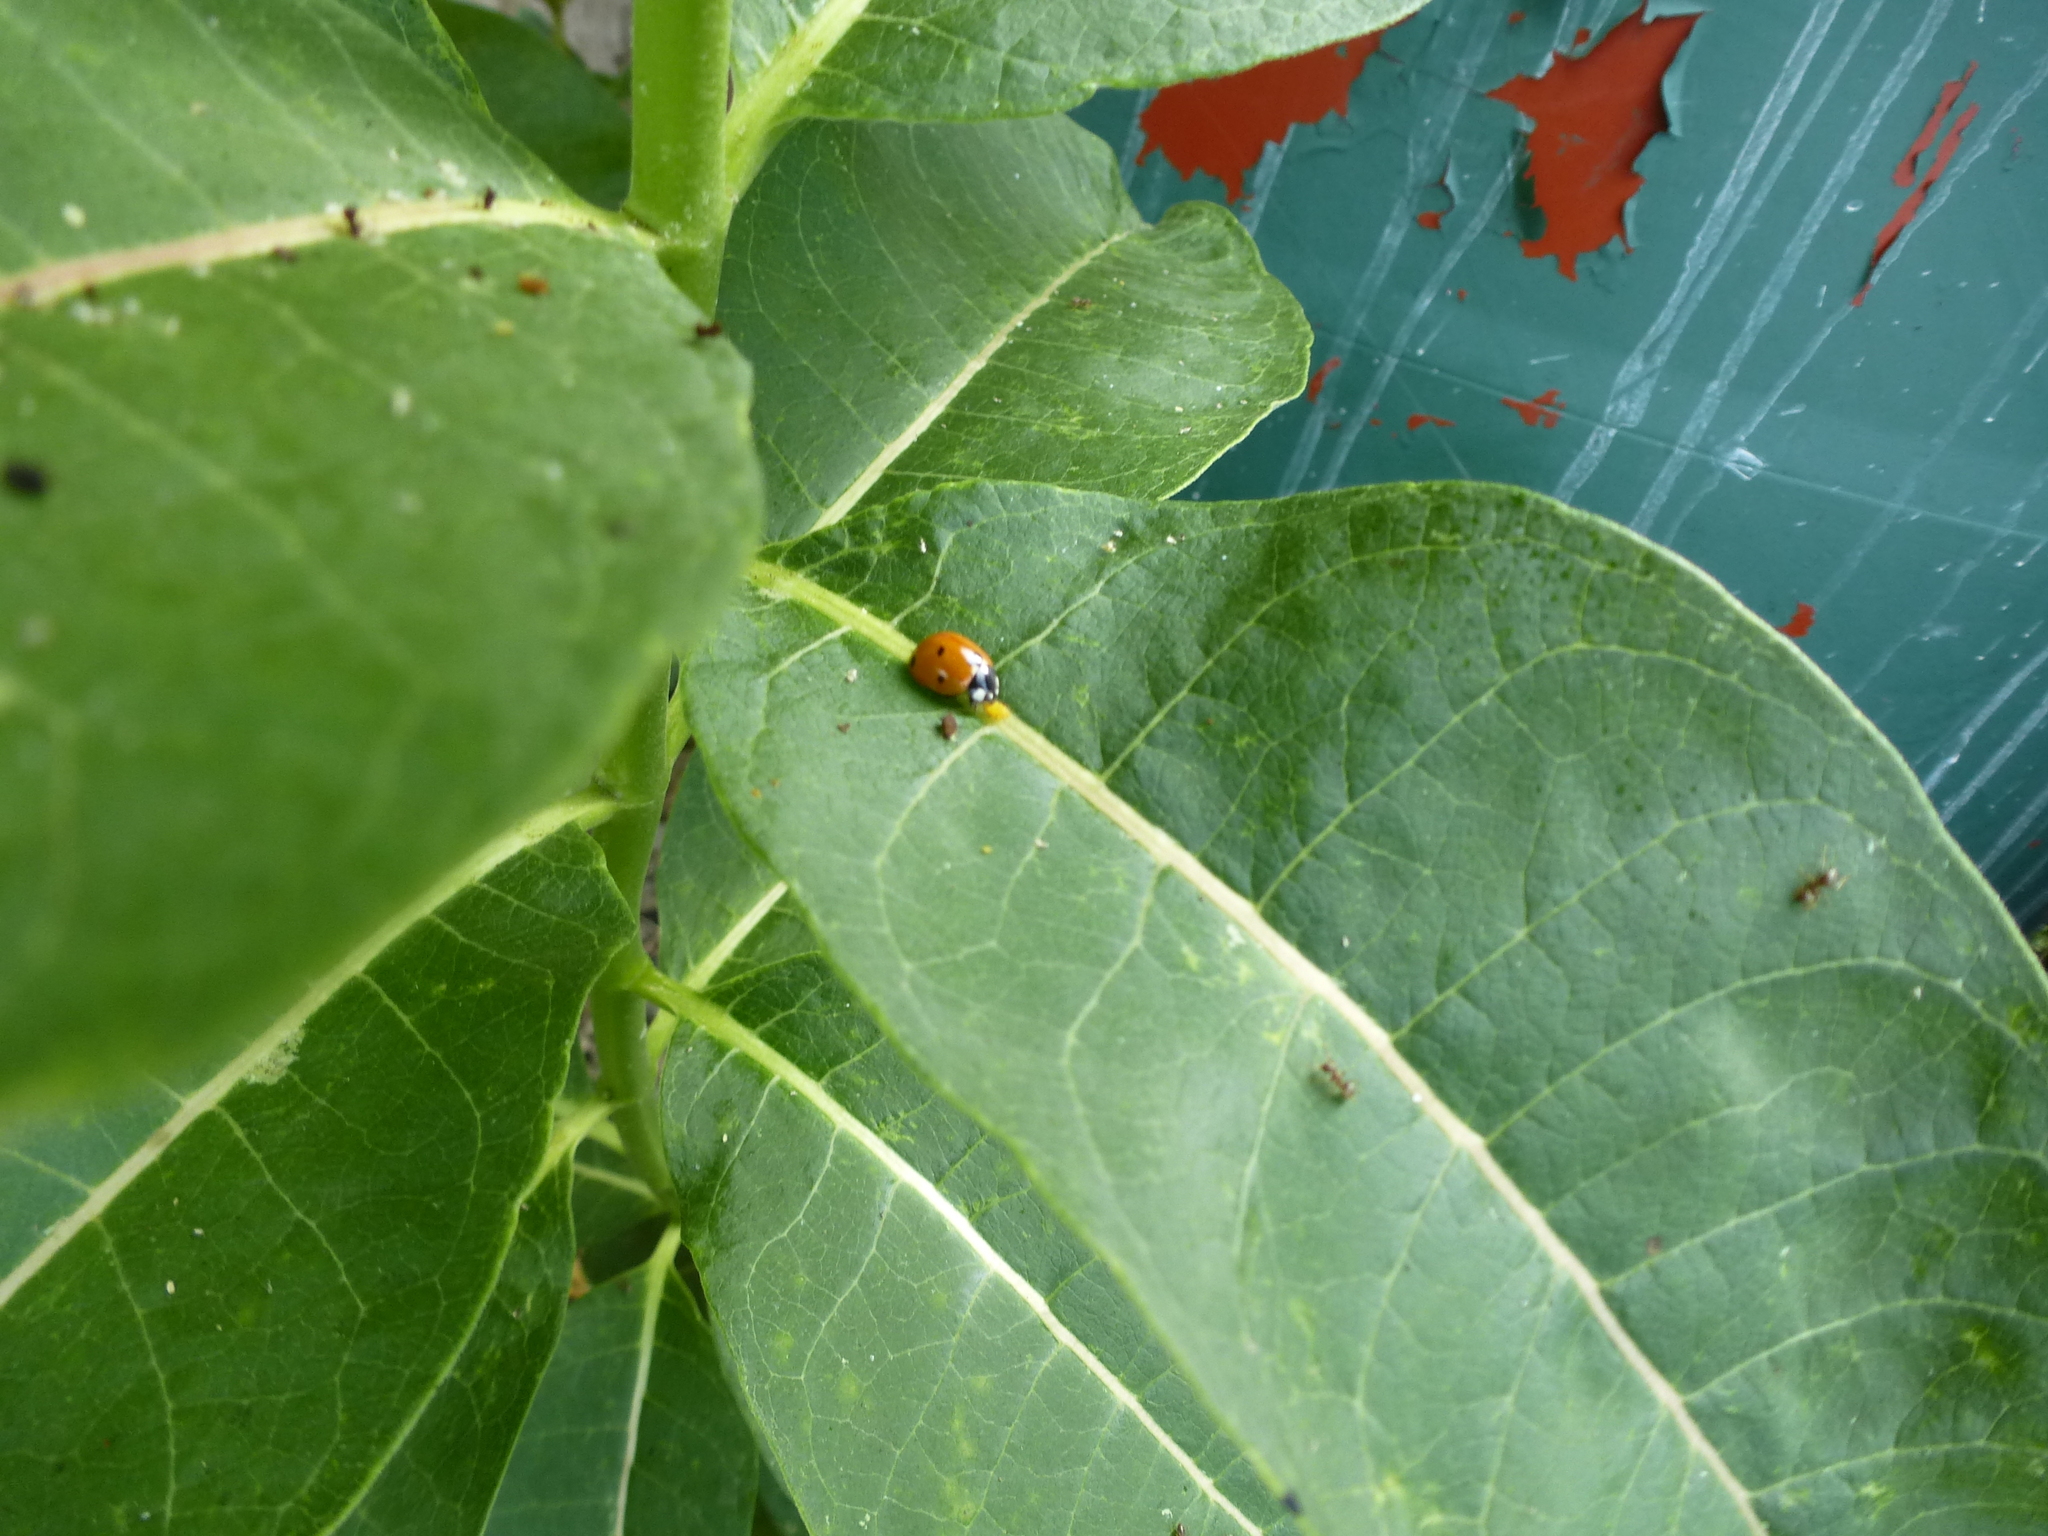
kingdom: Animalia
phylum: Arthropoda
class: Insecta
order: Coleoptera
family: Coccinellidae
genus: Coccinella
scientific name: Coccinella septempunctata
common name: Sevenspotted lady beetle
